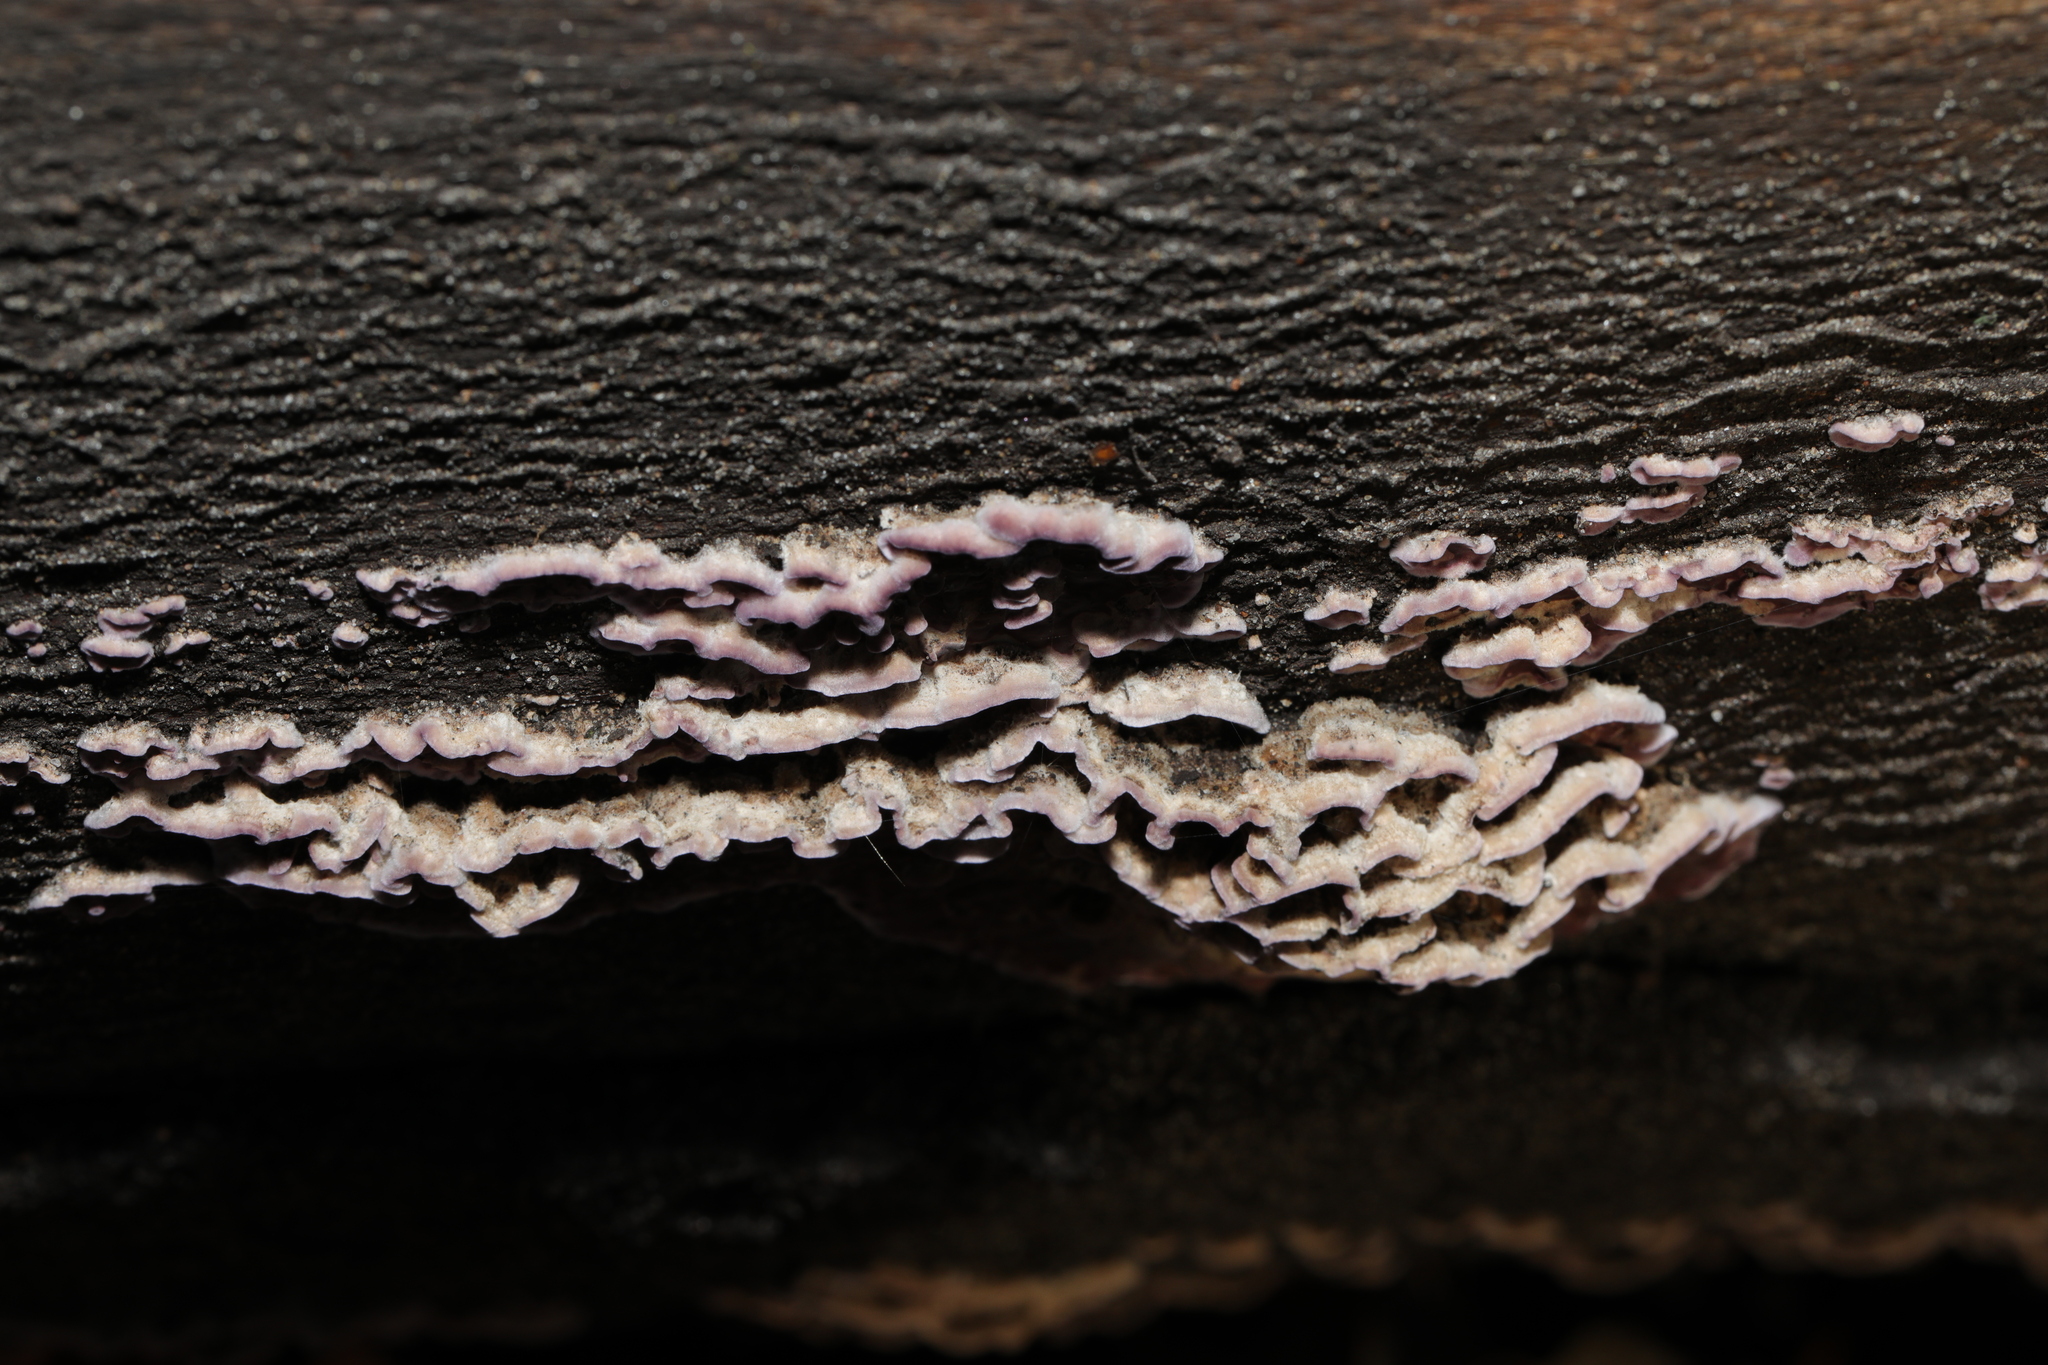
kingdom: Fungi
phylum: Basidiomycota
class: Agaricomycetes
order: Agaricales
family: Cyphellaceae
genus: Chondrostereum
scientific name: Chondrostereum purpureum
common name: Silver leaf disease
